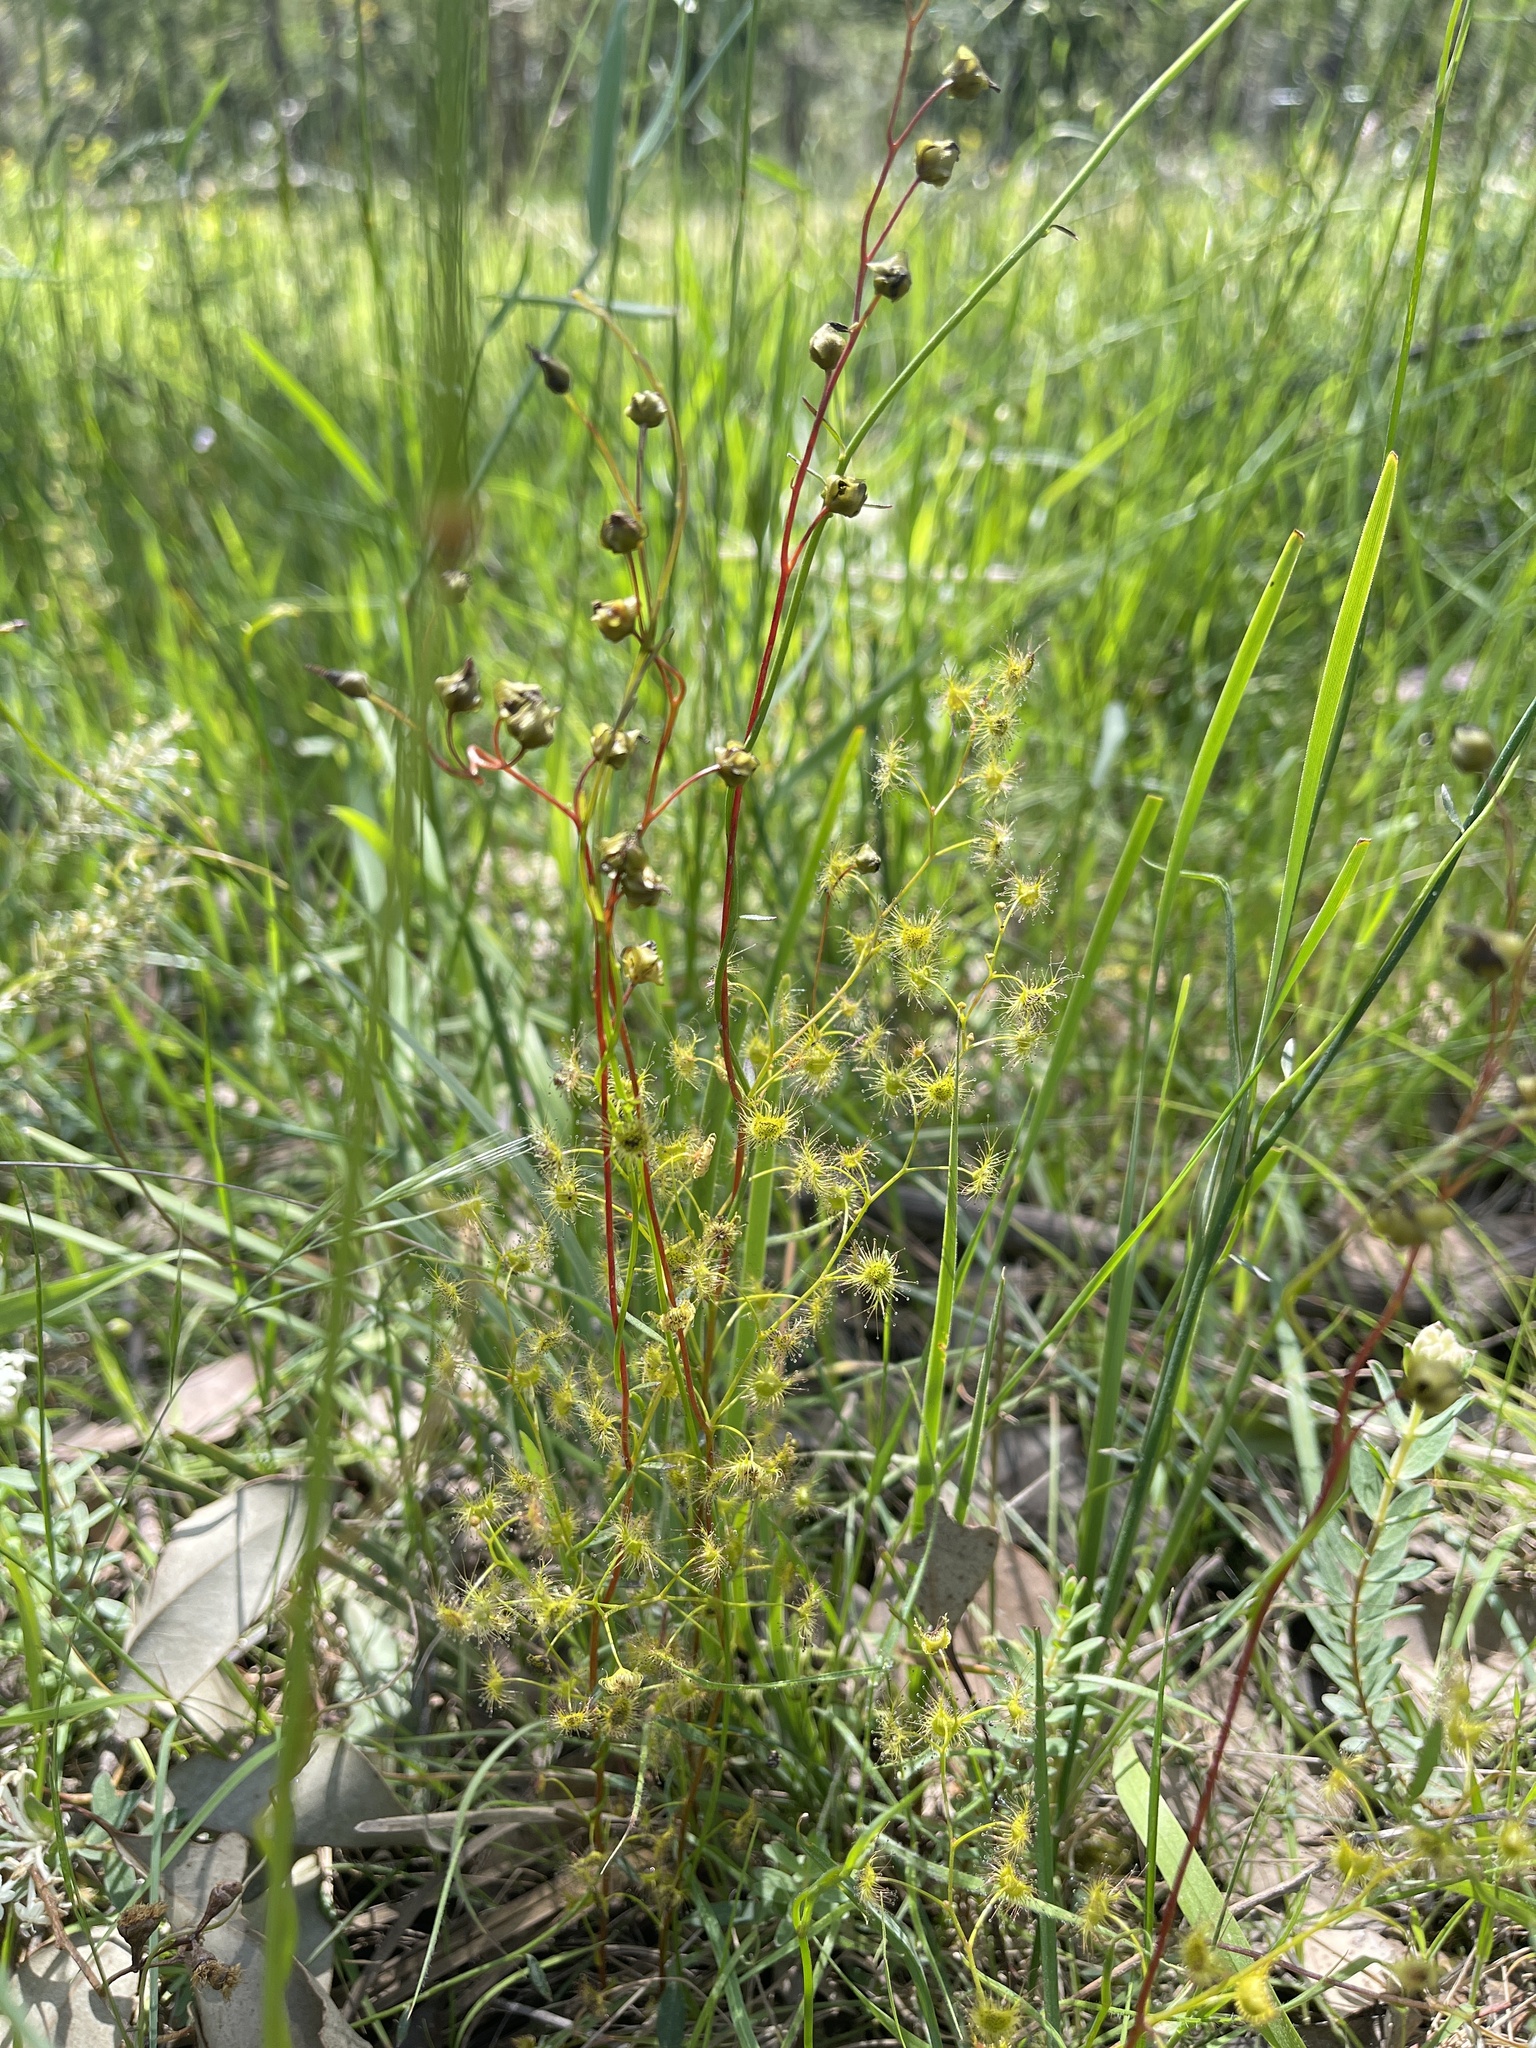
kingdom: Plantae
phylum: Tracheophyta
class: Magnoliopsida
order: Caryophyllales
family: Droseraceae
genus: Drosera
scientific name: Drosera peltata
